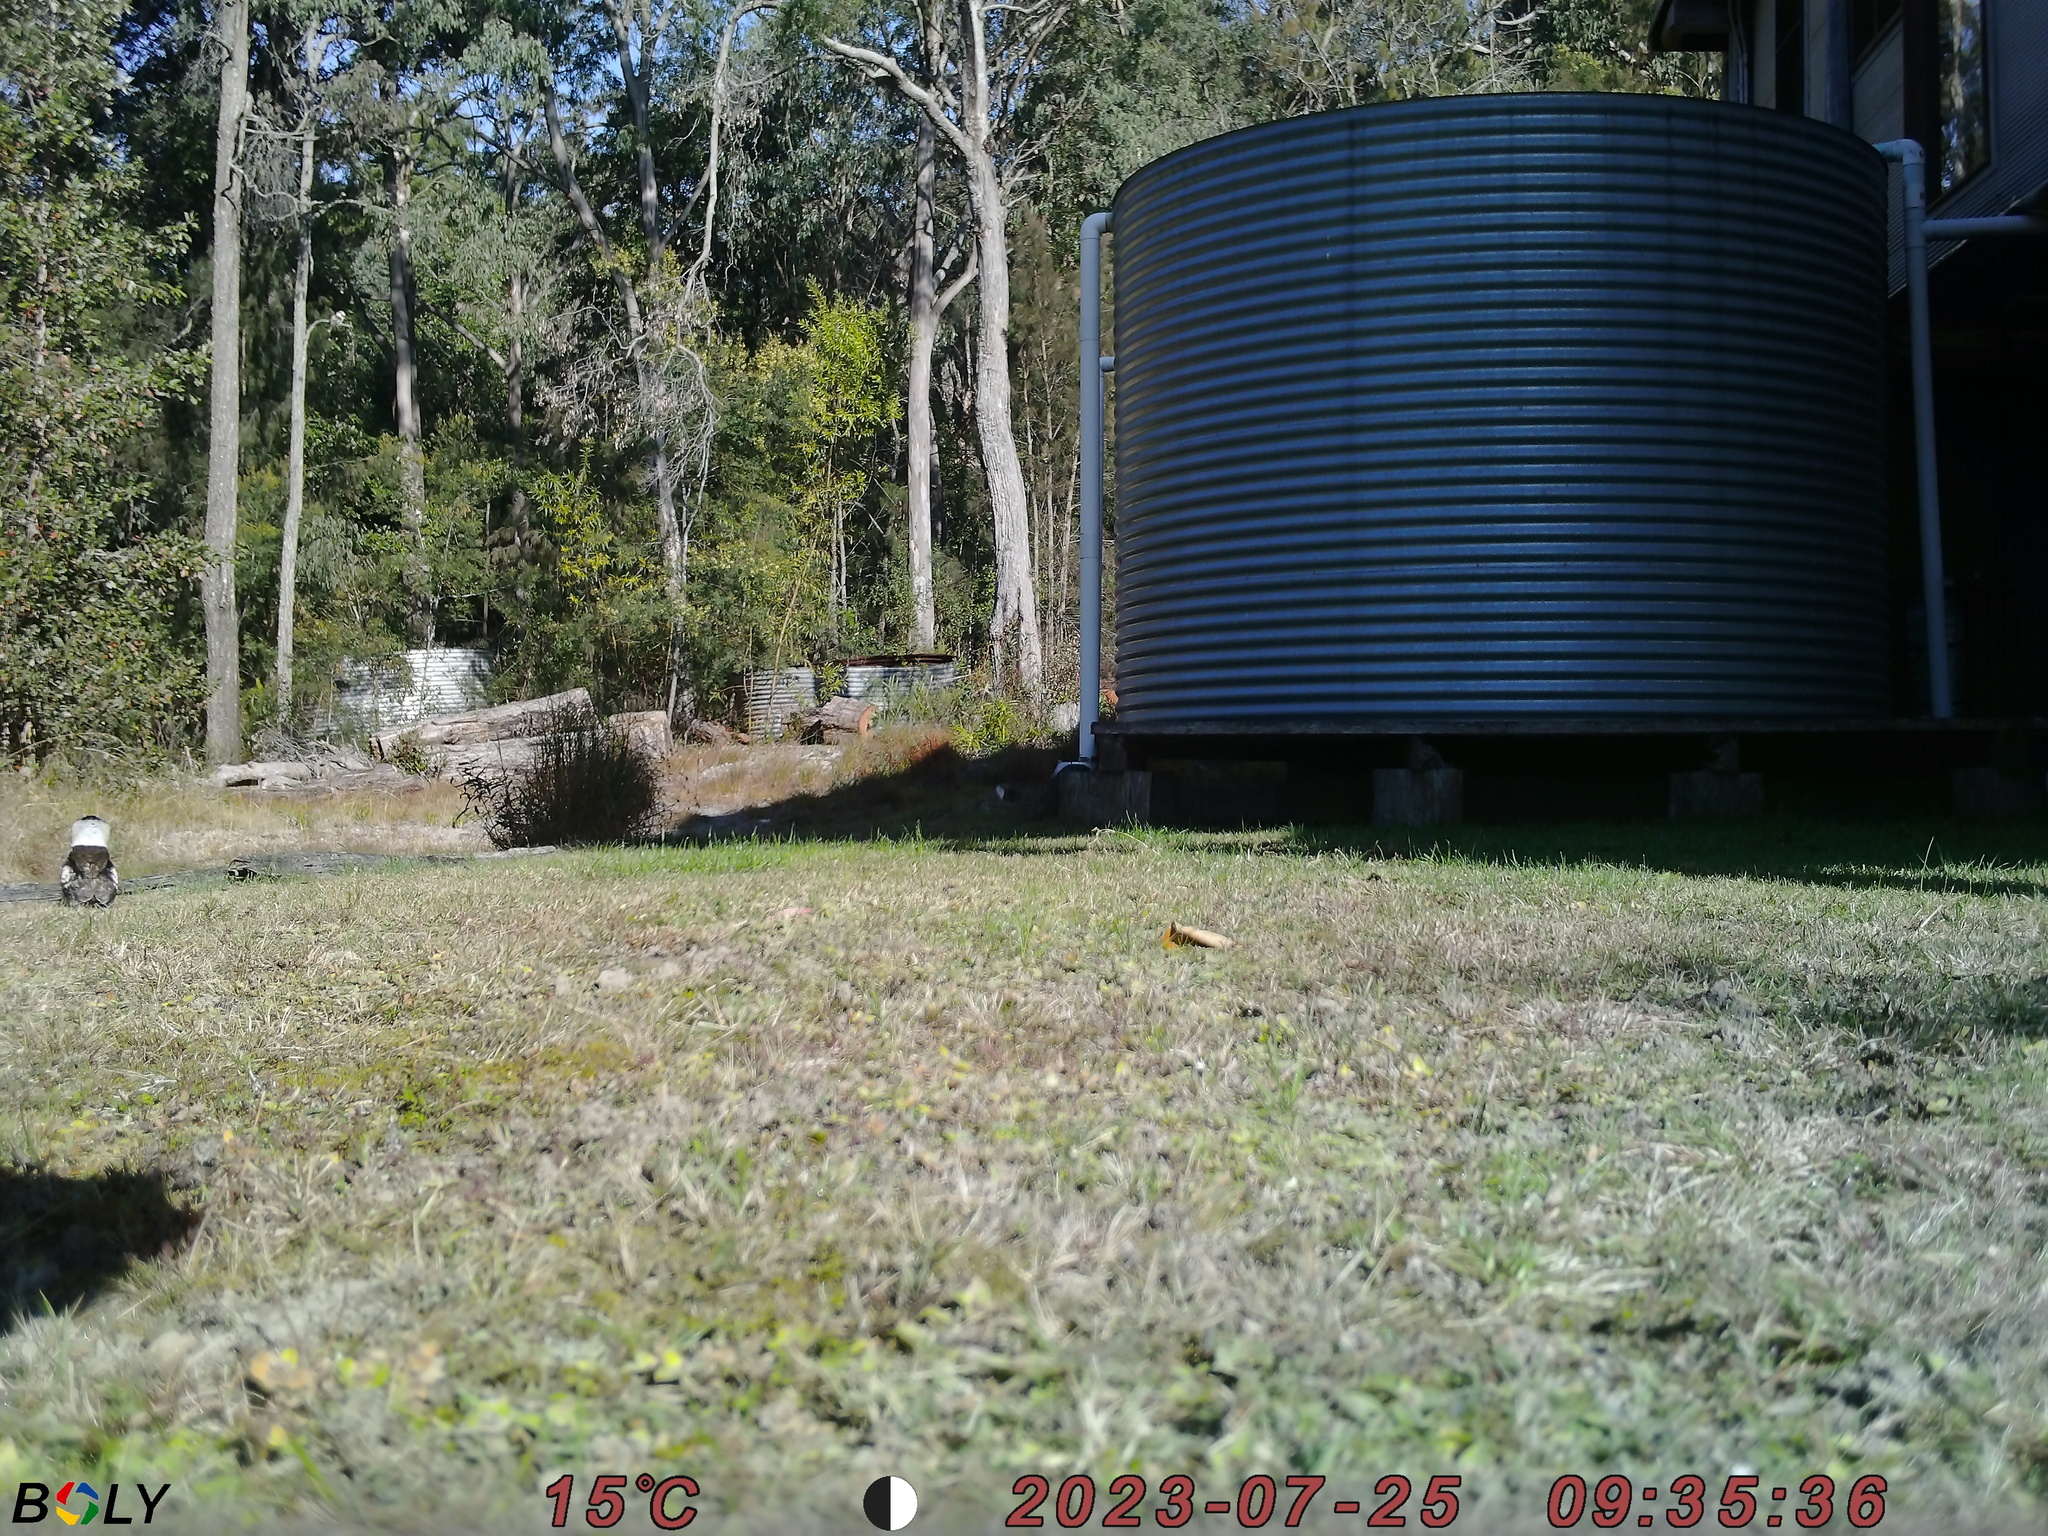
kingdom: Animalia
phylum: Chordata
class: Aves
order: Coraciiformes
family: Alcedinidae
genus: Dacelo
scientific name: Dacelo novaeguineae
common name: Laughing kookaburra
